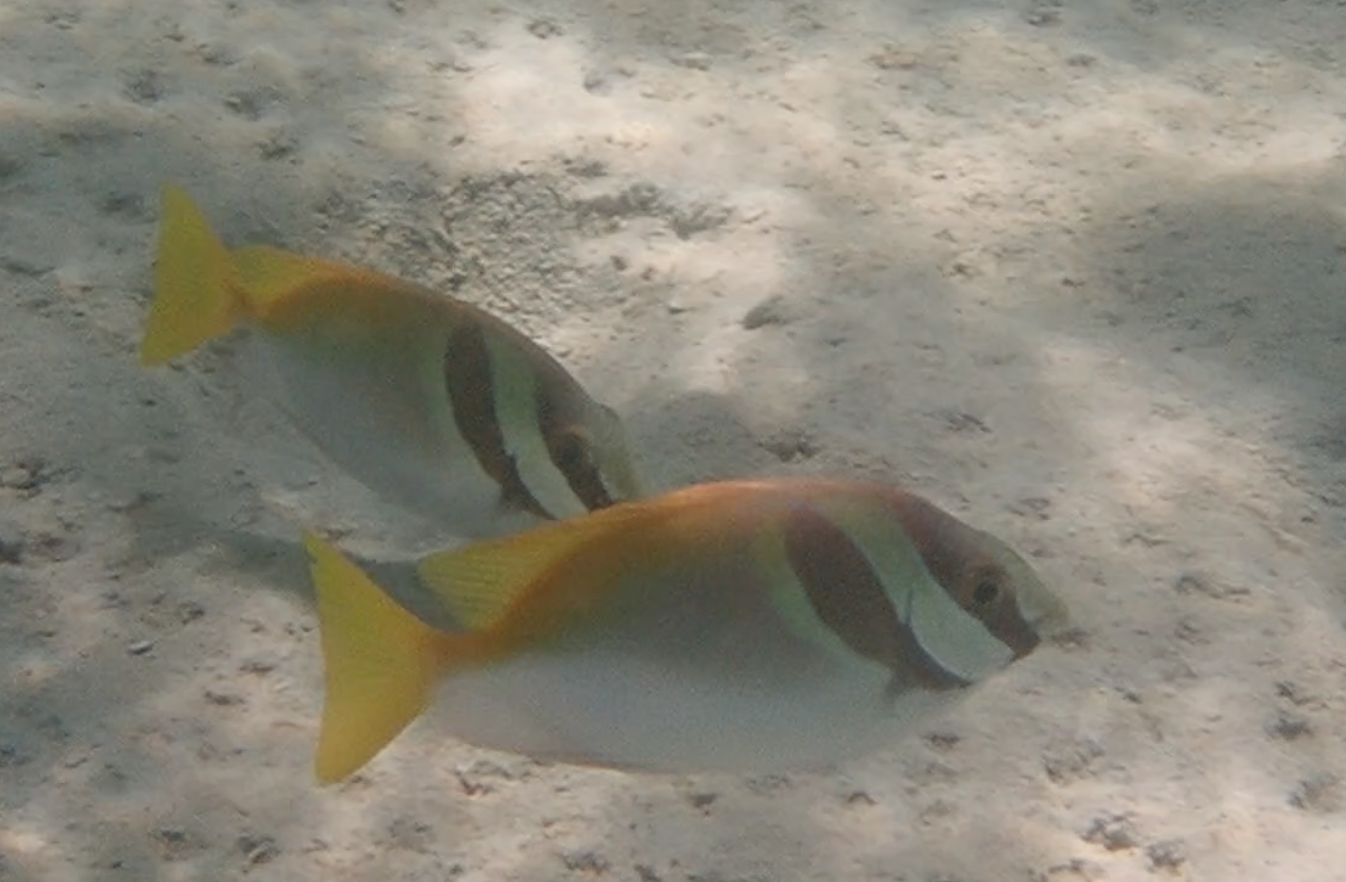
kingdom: Animalia
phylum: Chordata
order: Perciformes
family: Siganidae
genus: Siganus
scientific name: Siganus virgatus
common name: Barhead spinefoot
